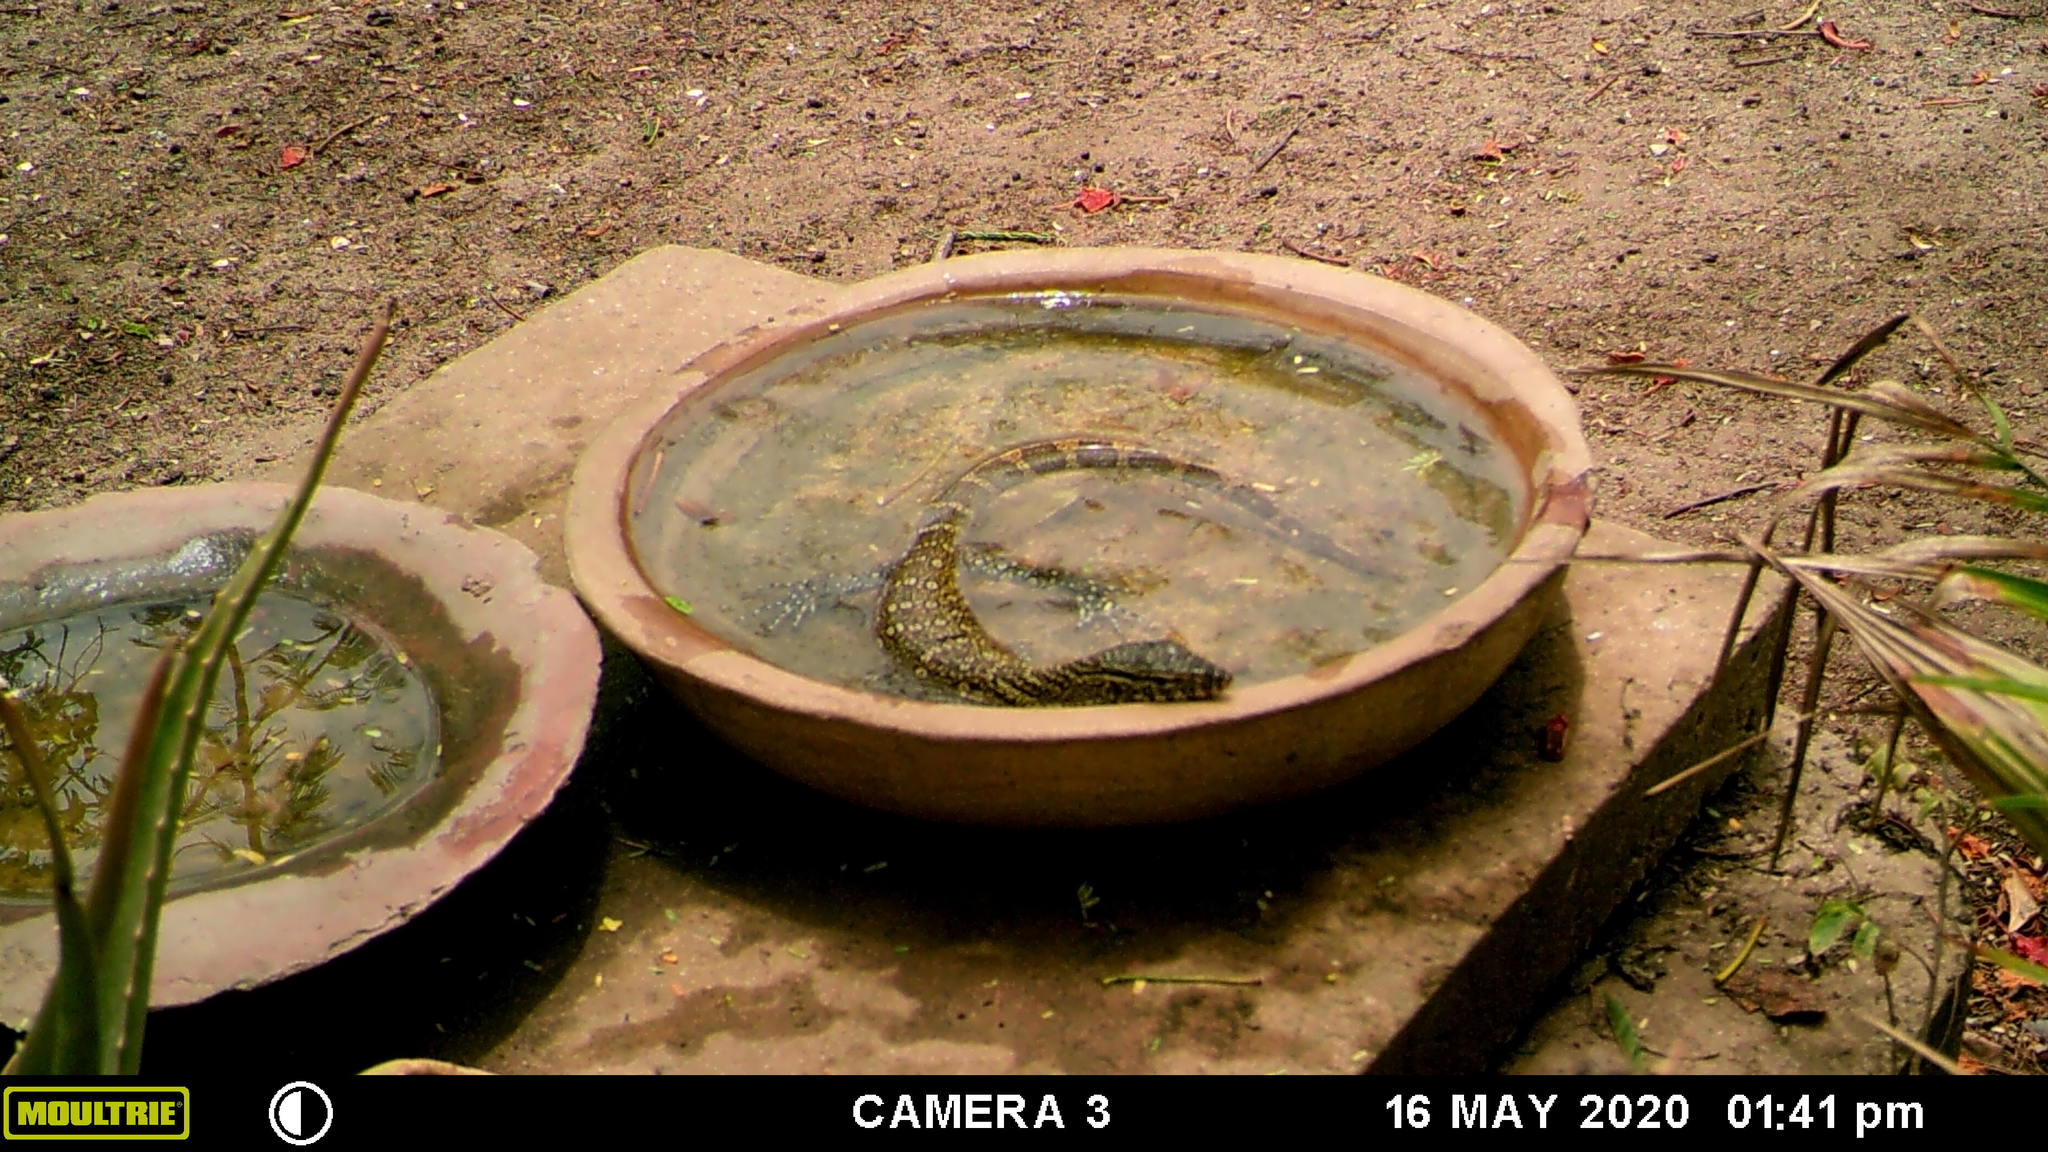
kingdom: Animalia
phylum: Chordata
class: Squamata
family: Varanidae
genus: Varanus
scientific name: Varanus niloticus
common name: Nile monitor
